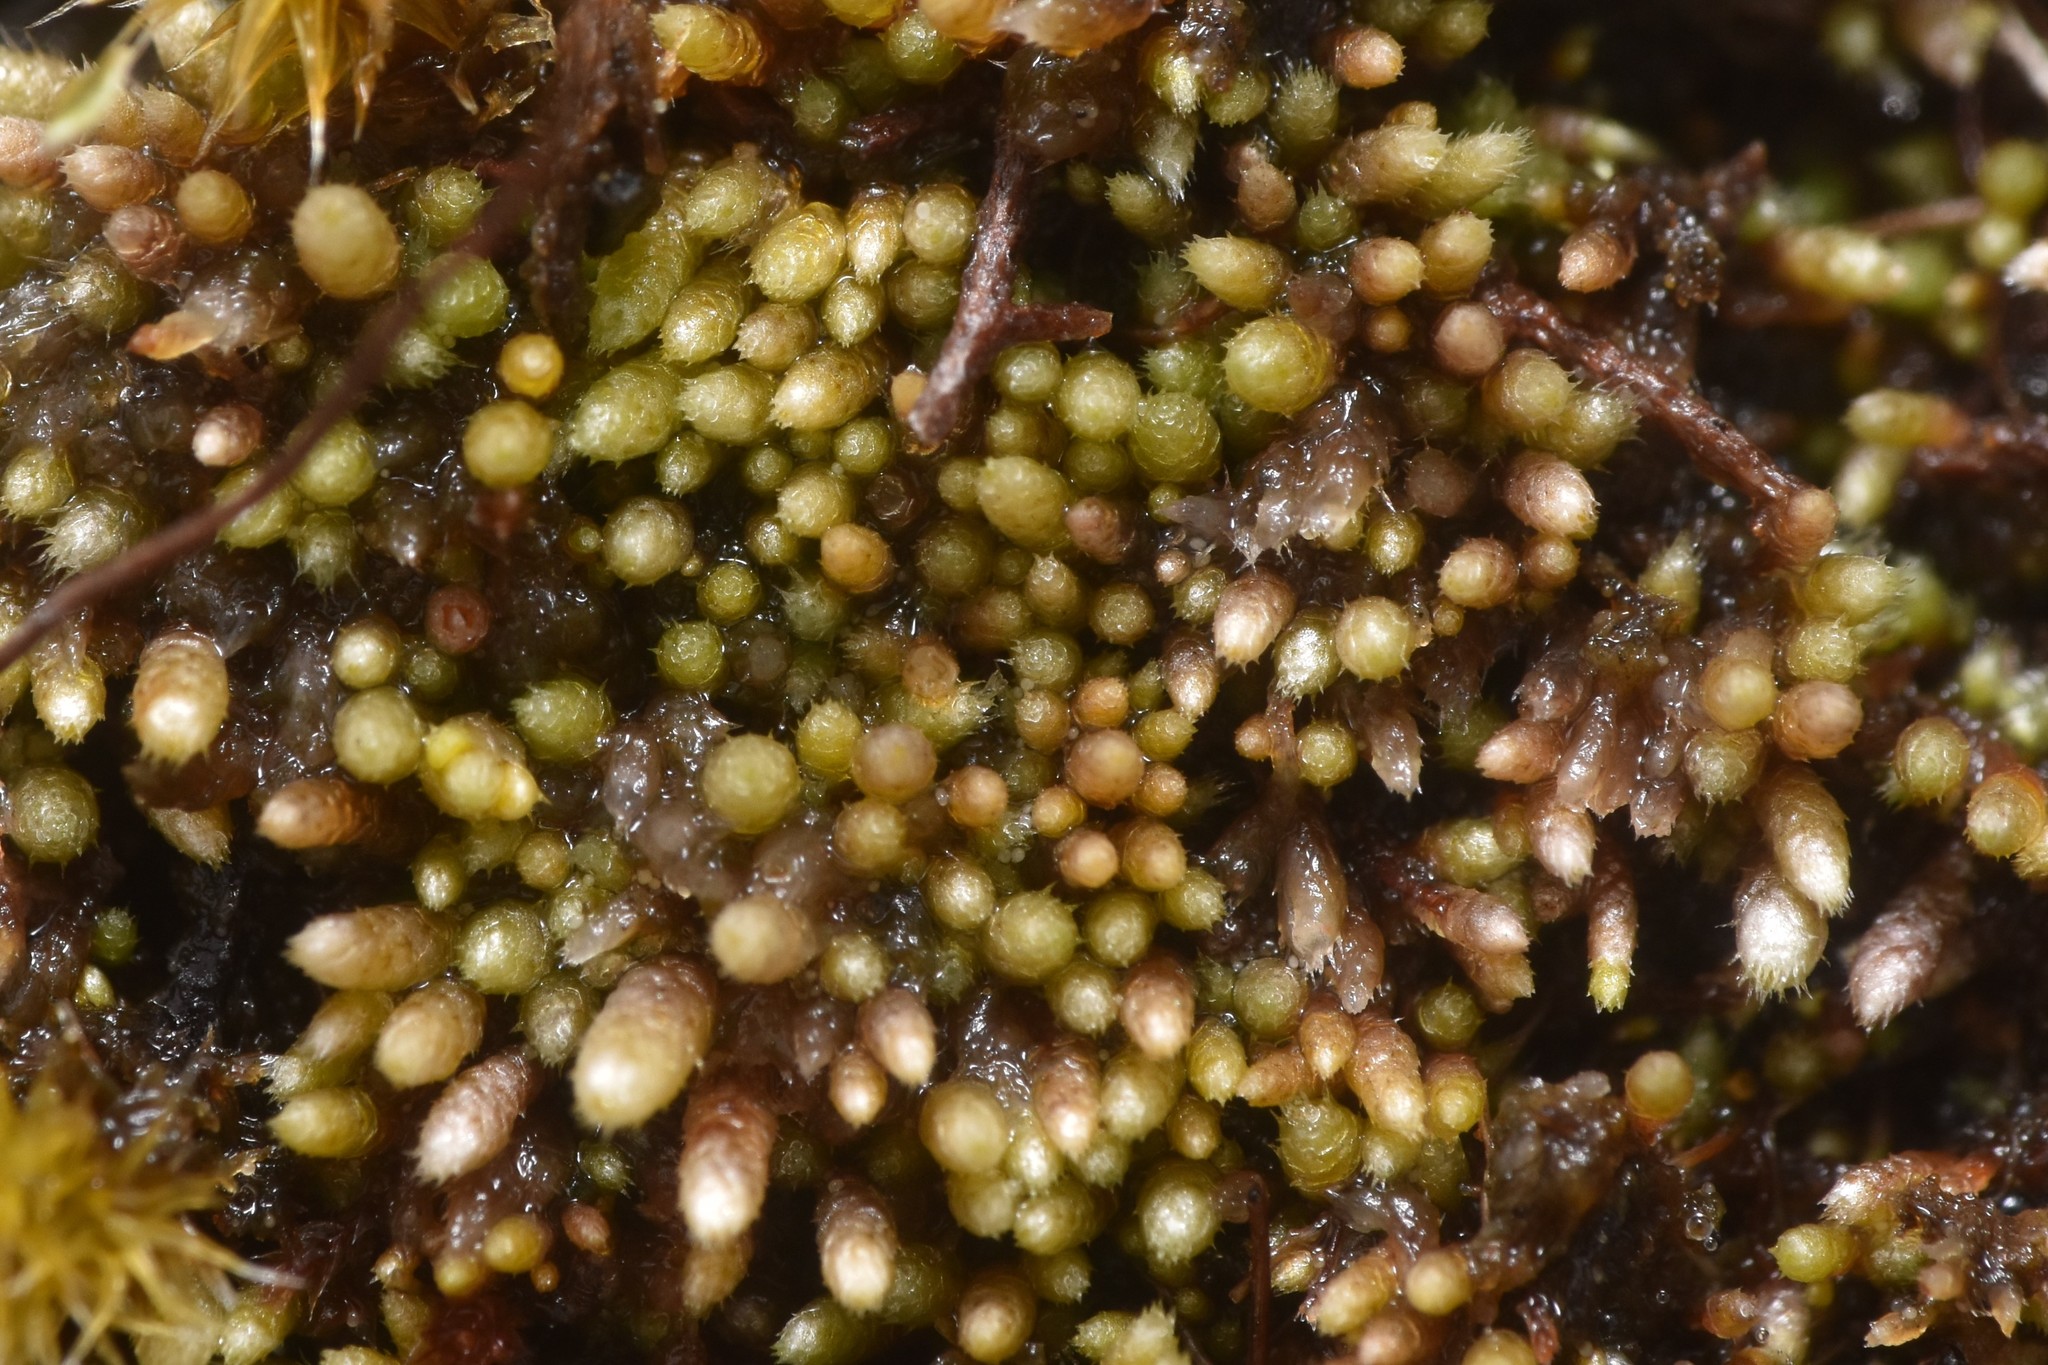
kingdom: Plantae
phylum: Bryophyta
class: Bryopsida
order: Bryales
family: Bryaceae
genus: Bryum
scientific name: Bryum argenteum
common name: Silver-moss
